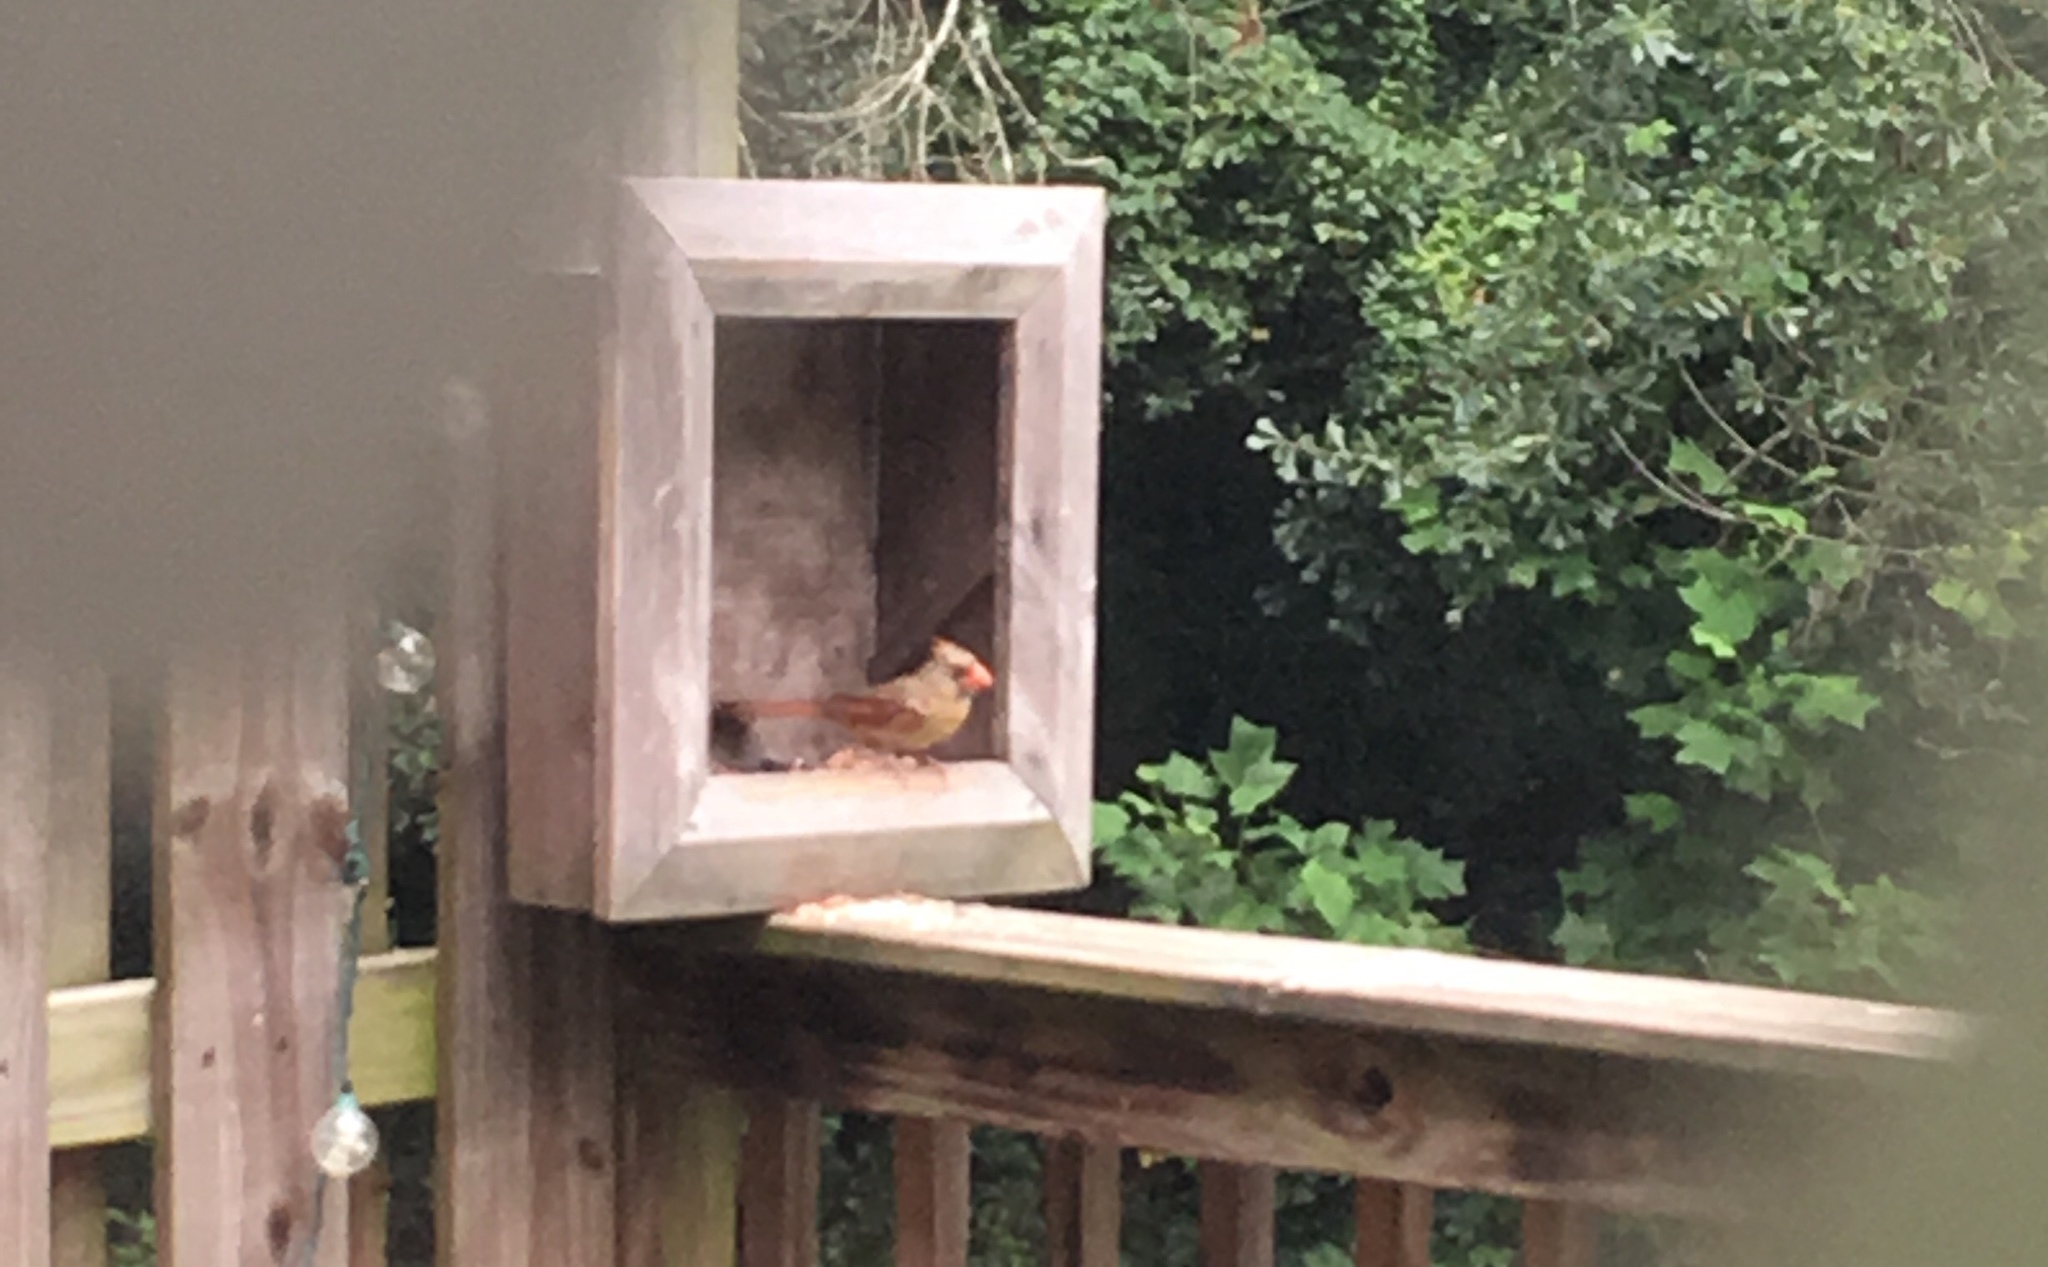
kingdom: Animalia
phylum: Chordata
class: Aves
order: Passeriformes
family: Cardinalidae
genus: Cardinalis
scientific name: Cardinalis cardinalis
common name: Northern cardinal
